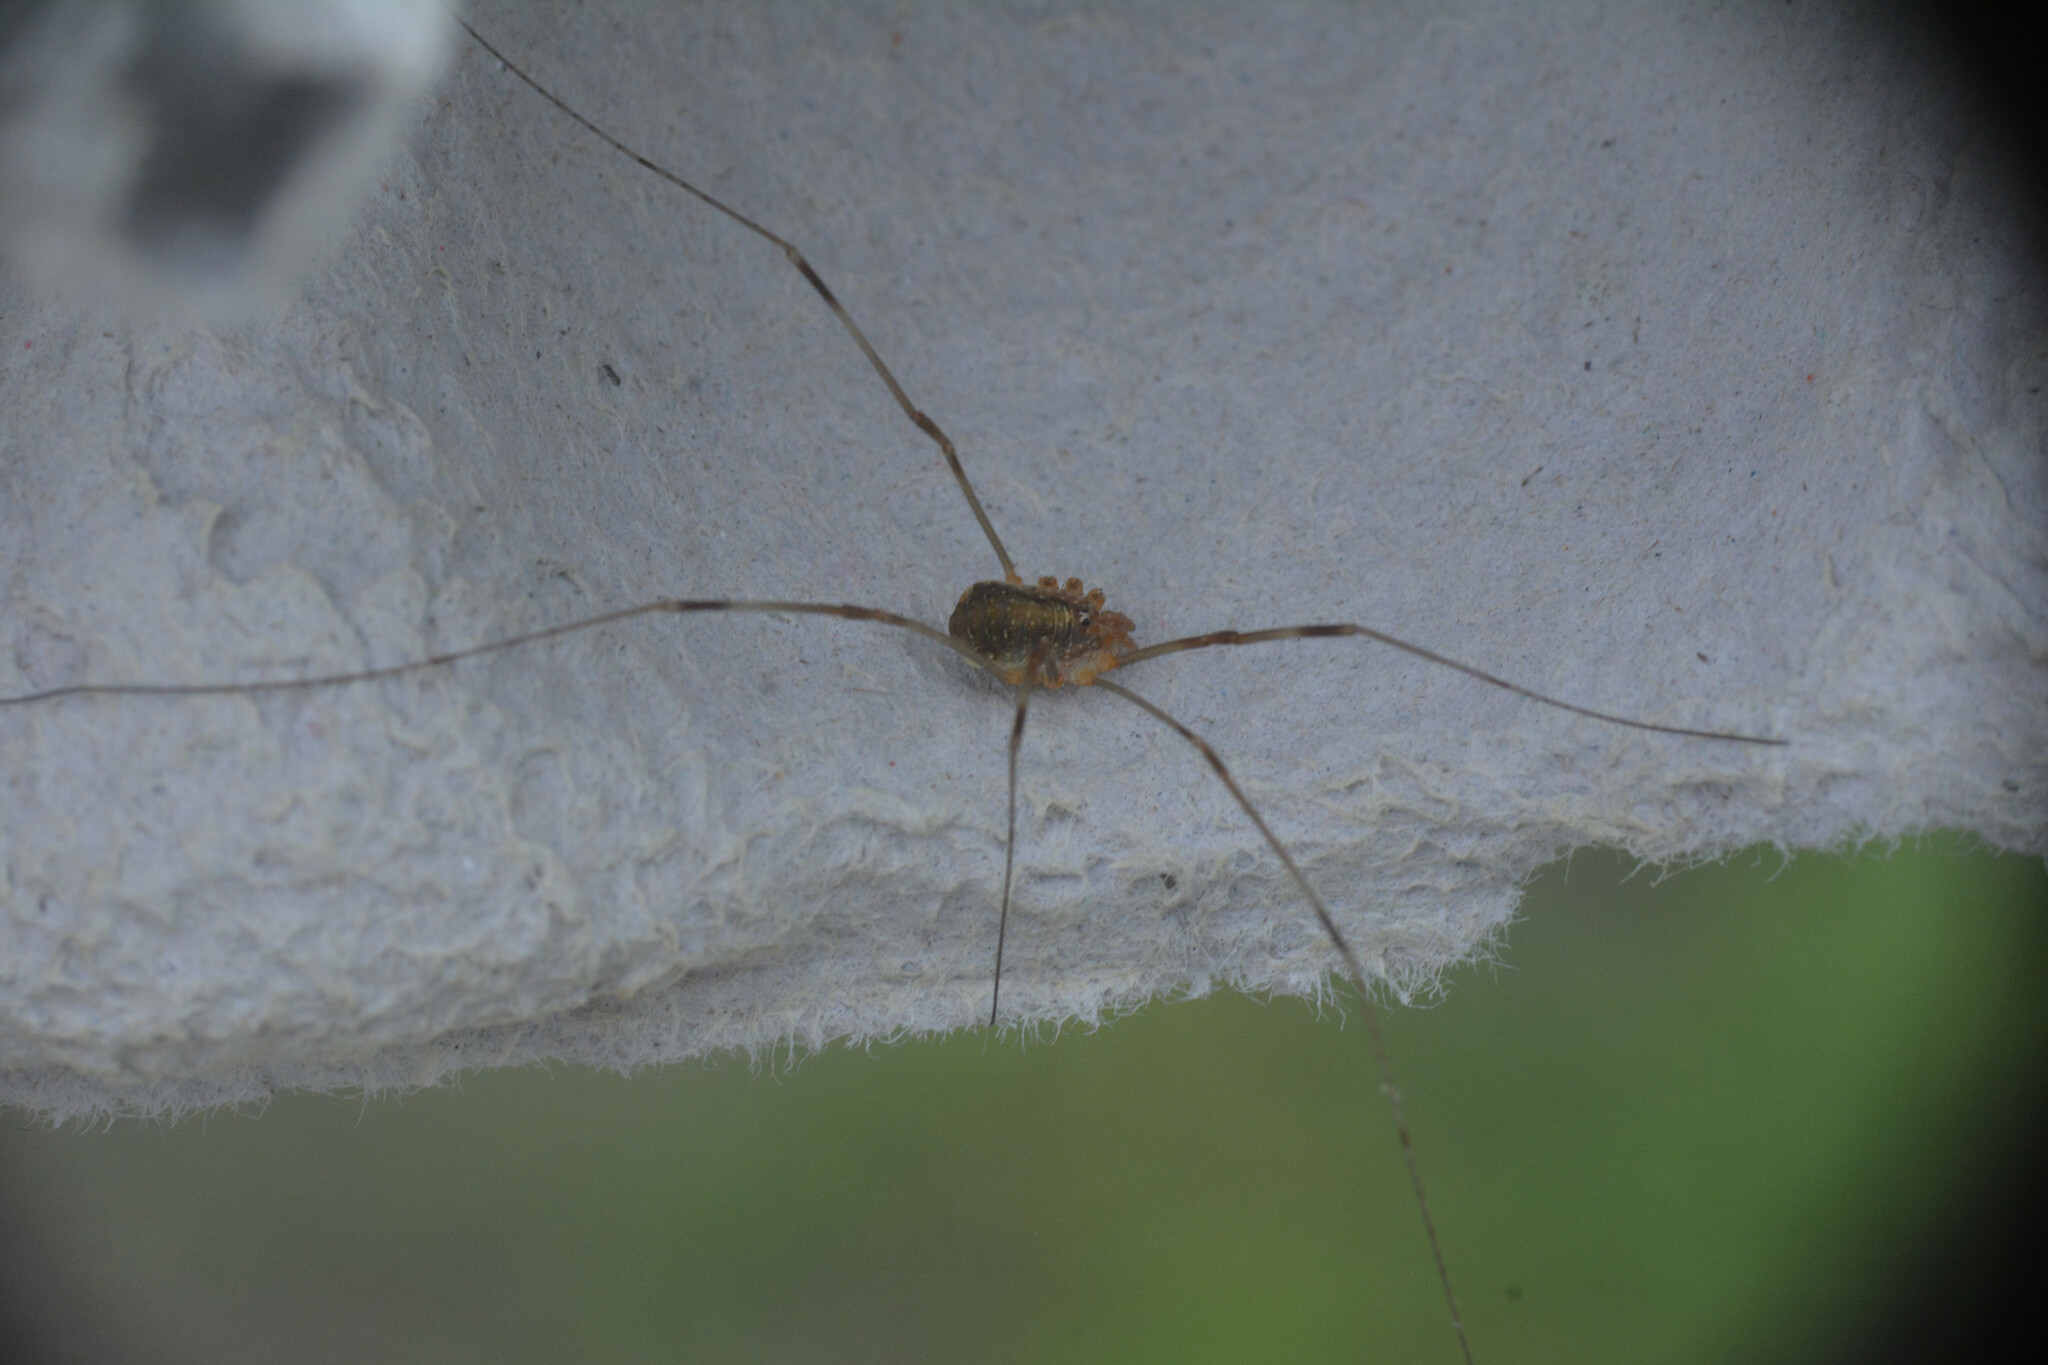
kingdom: Animalia
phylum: Arthropoda
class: Arachnida
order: Opiliones
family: Phalangiidae
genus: Opilio
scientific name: Opilio canestrinii
